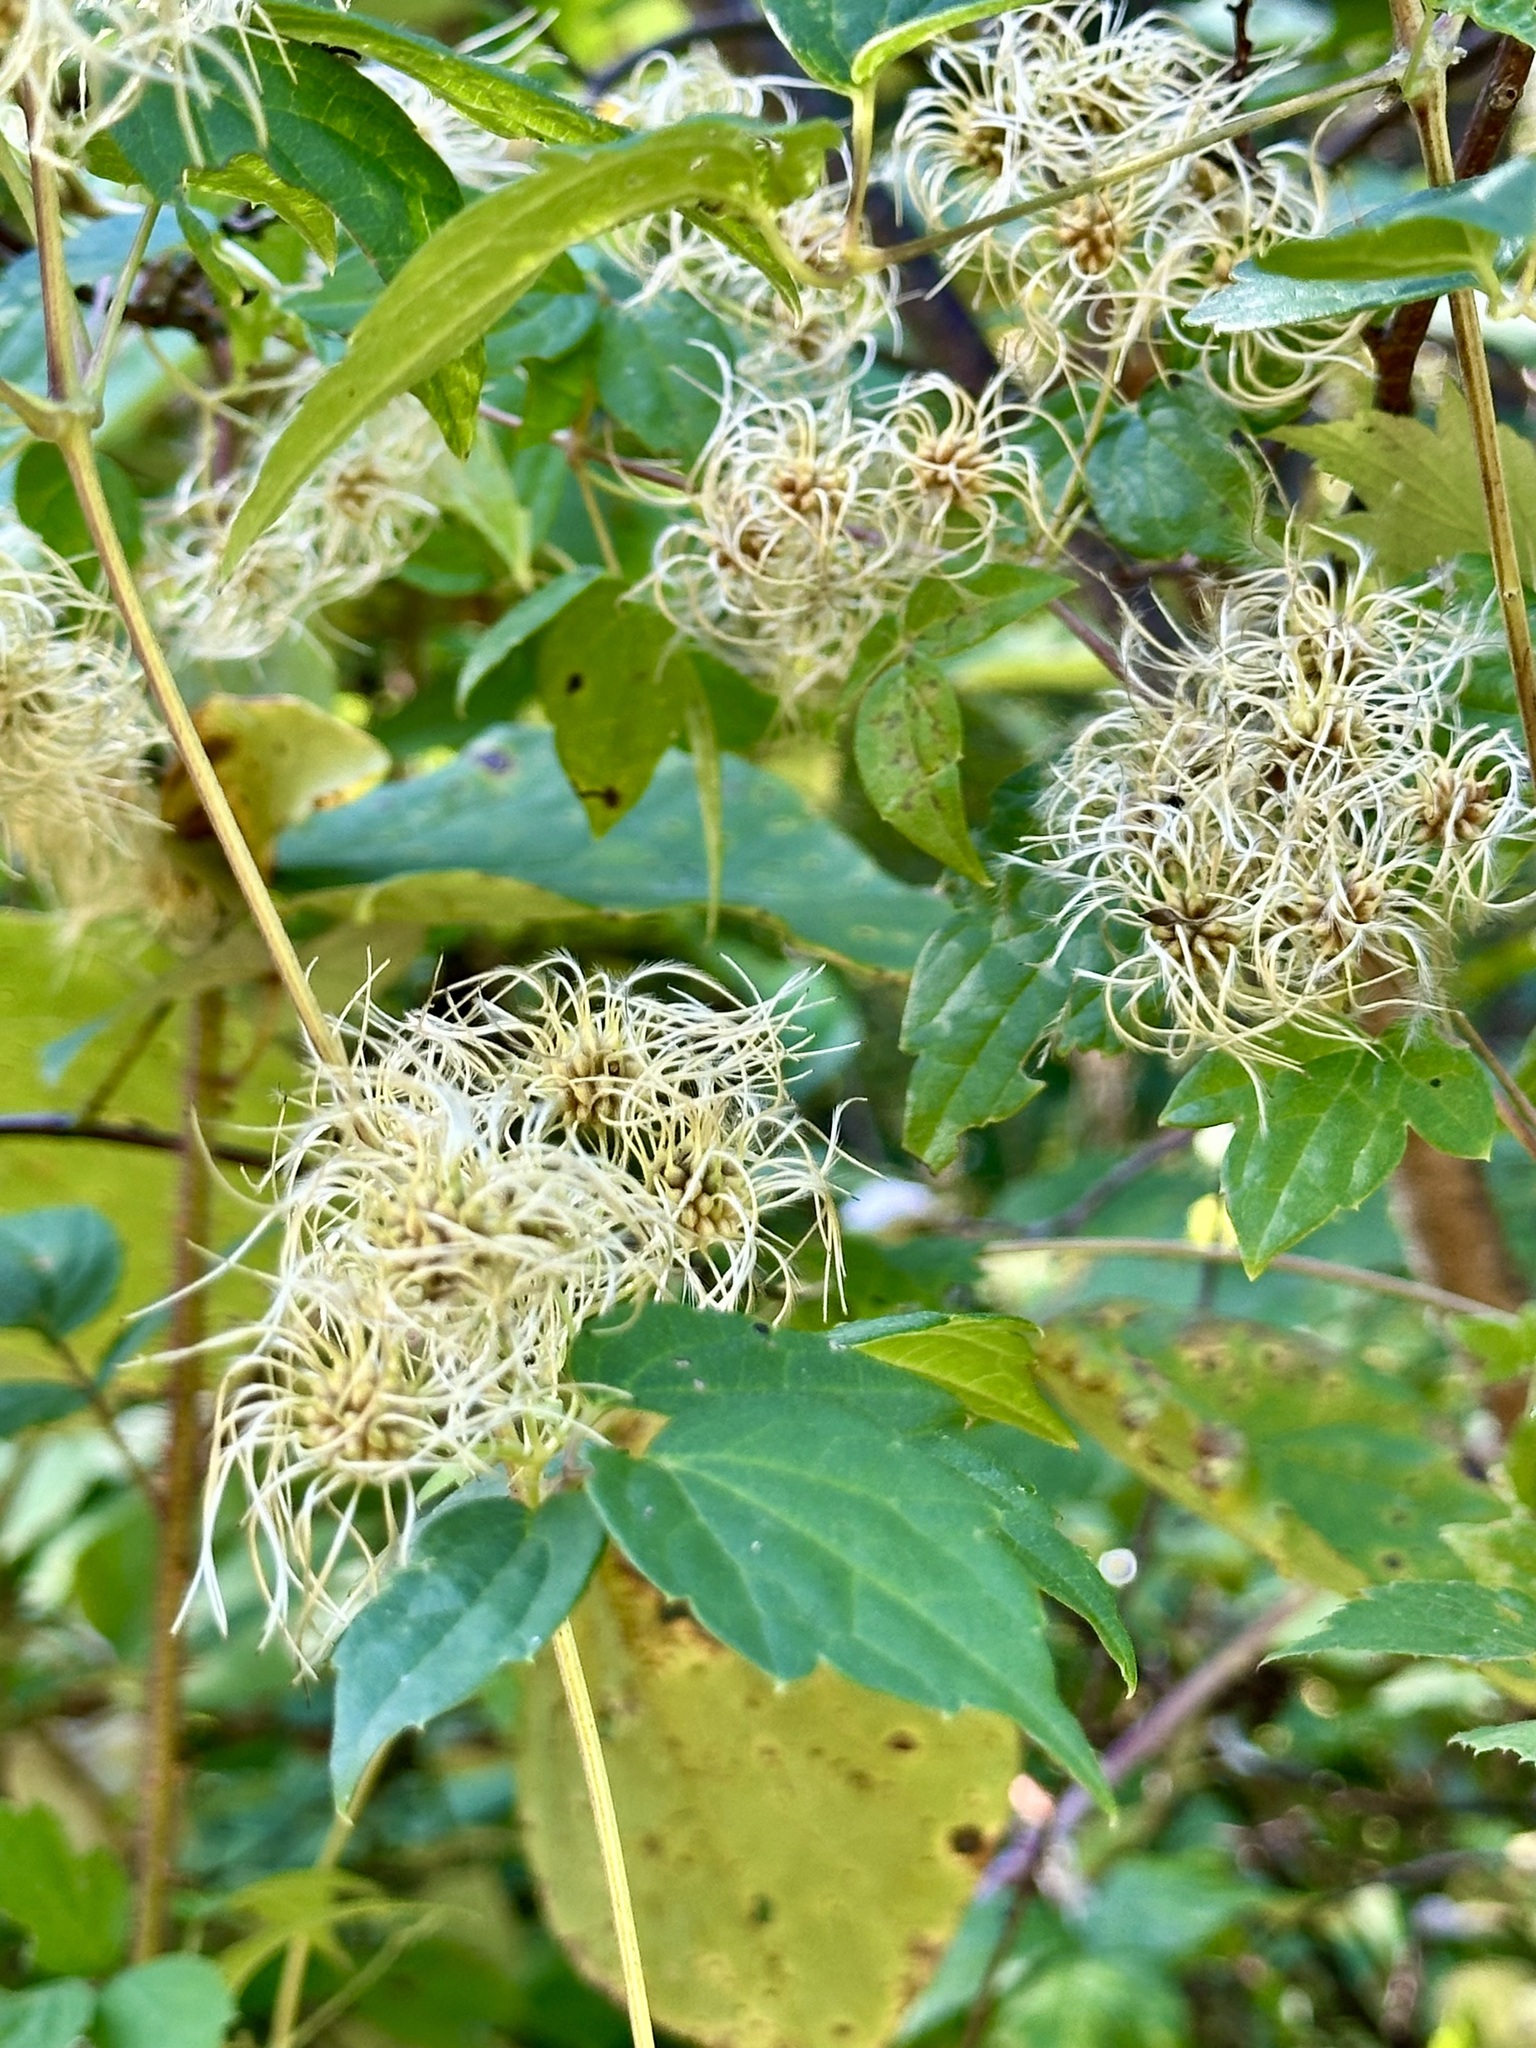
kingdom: Plantae
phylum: Tracheophyta
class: Magnoliopsida
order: Ranunculales
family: Ranunculaceae
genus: Clematis
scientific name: Clematis virginiana
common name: Virgin's-bower
